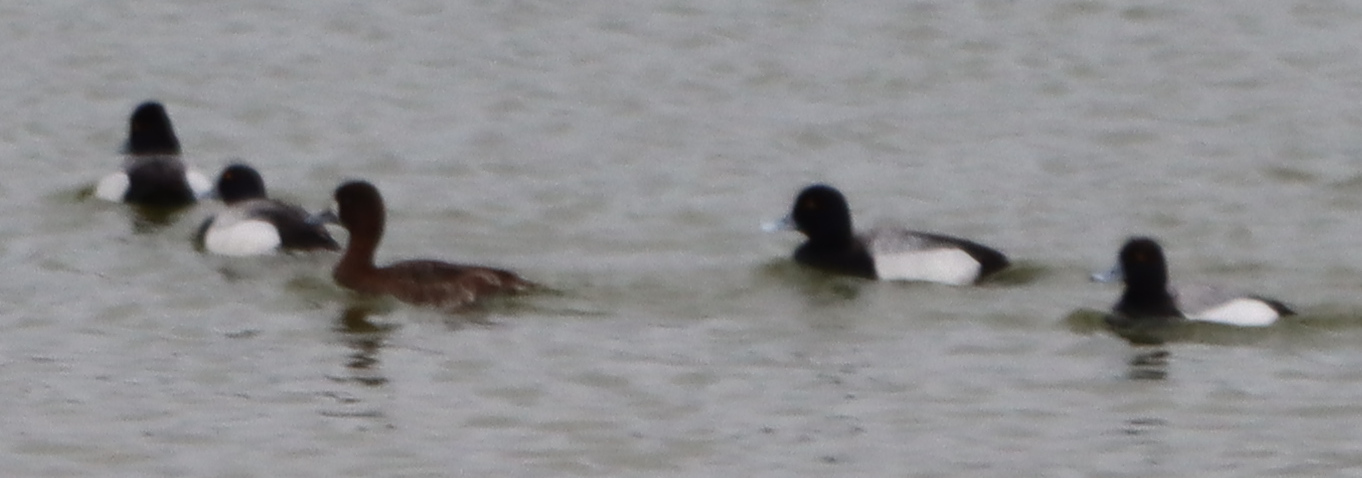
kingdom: Animalia
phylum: Chordata
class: Aves
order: Anseriformes
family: Anatidae
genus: Aythya
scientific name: Aythya affinis
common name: Lesser scaup
